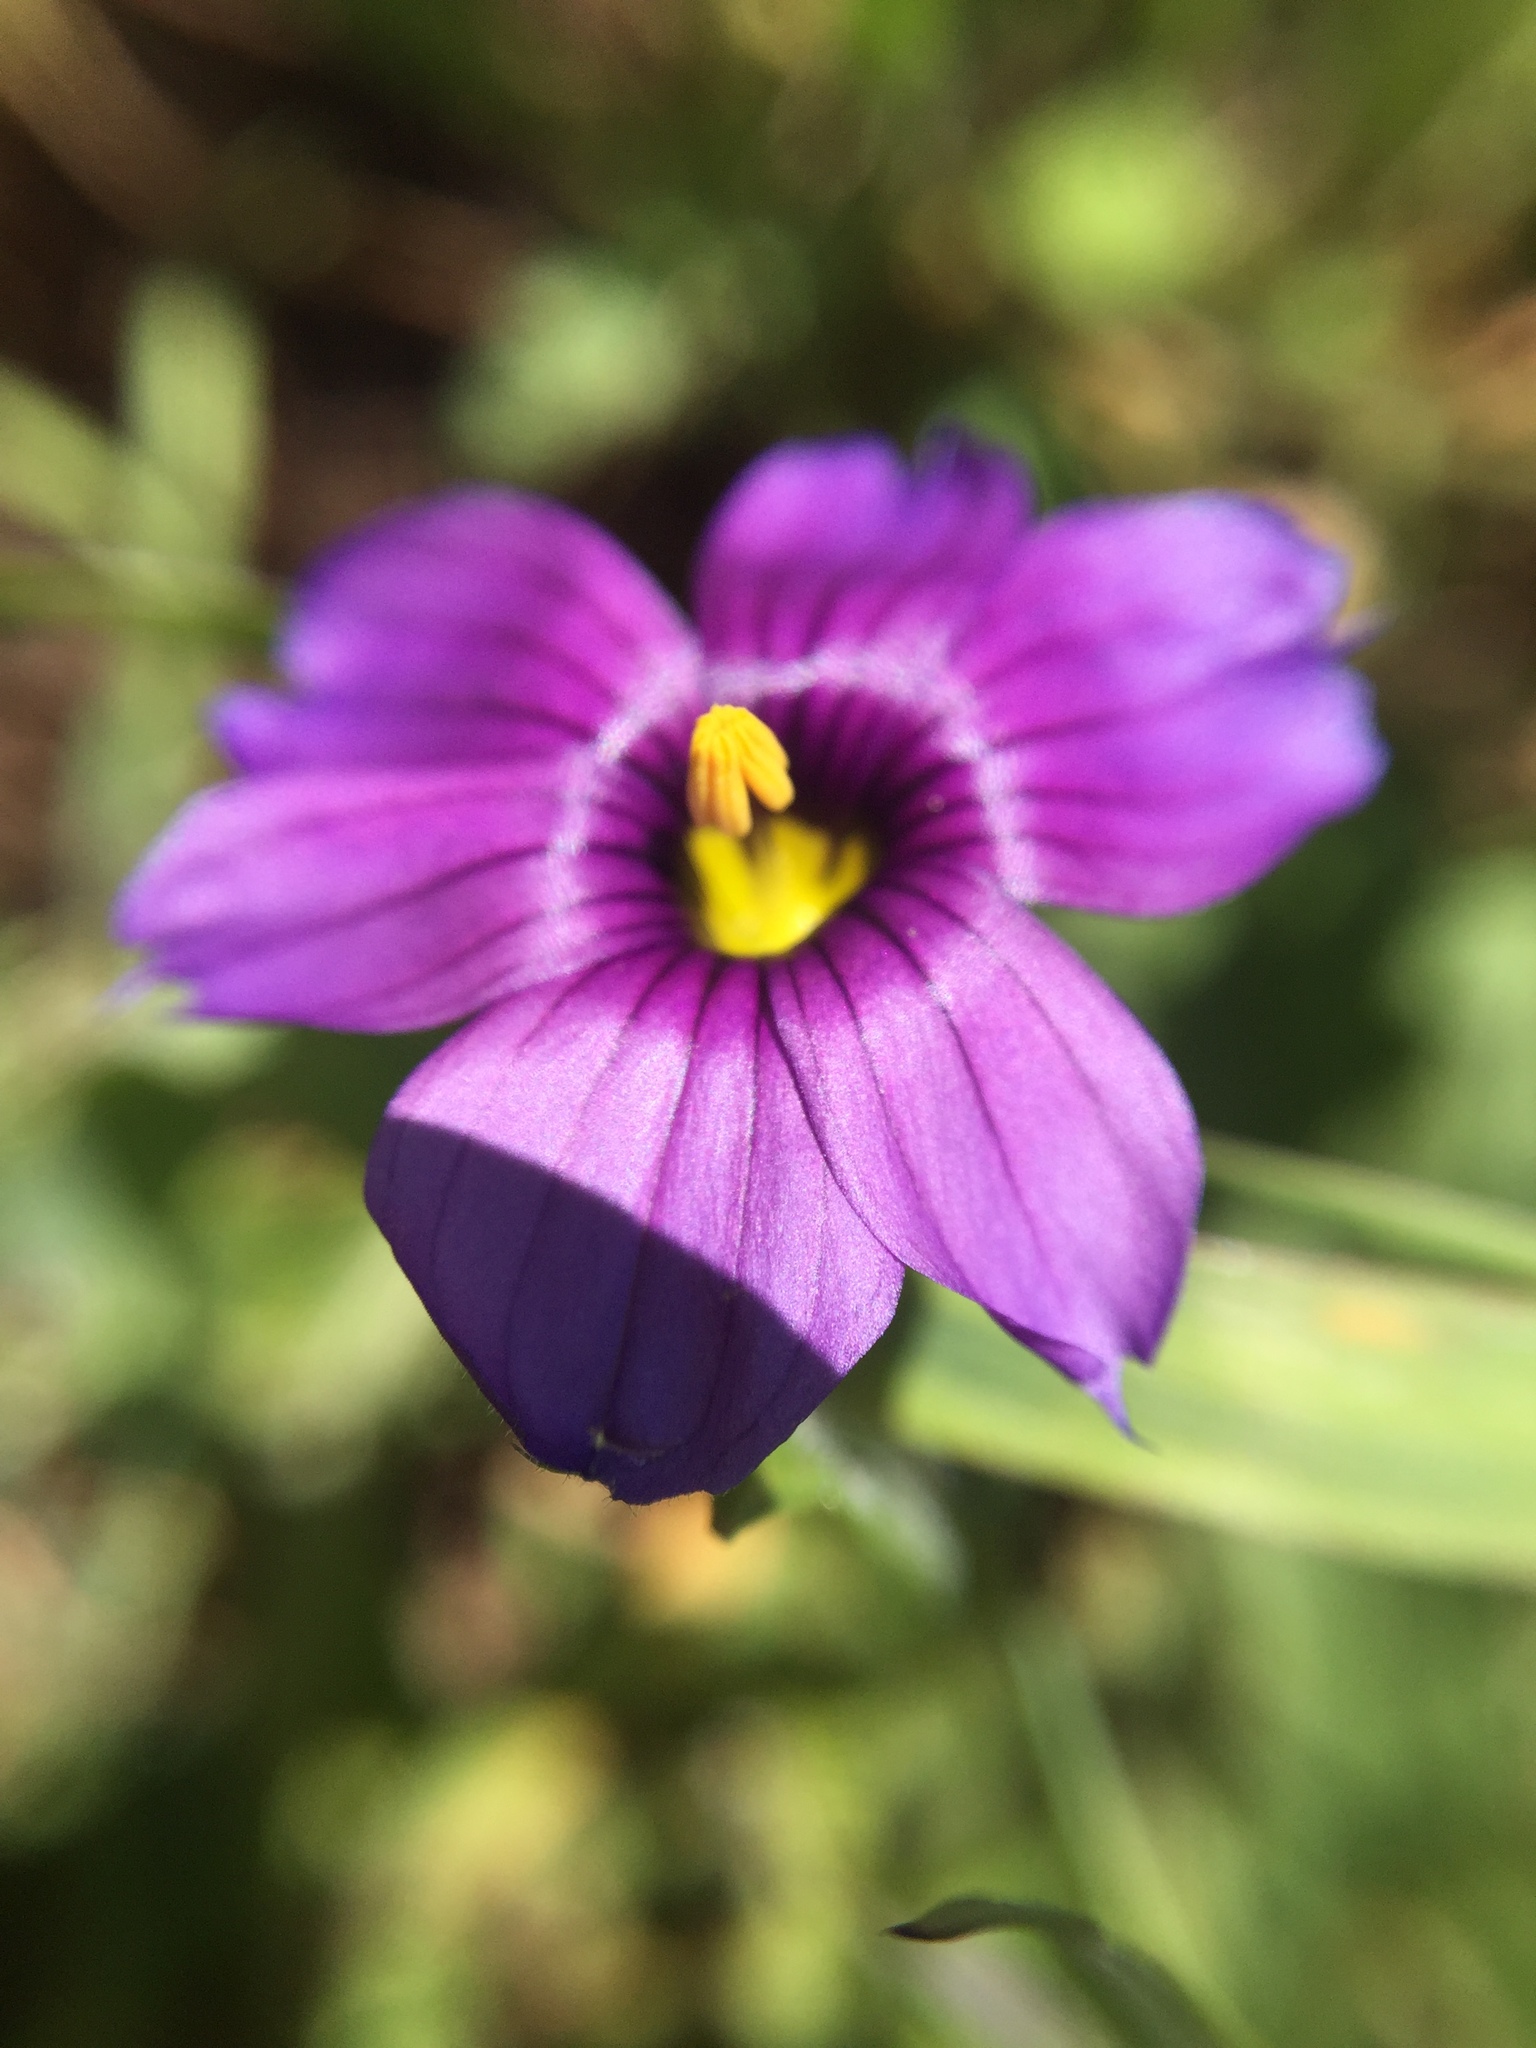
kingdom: Plantae
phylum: Tracheophyta
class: Liliopsida
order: Asparagales
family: Iridaceae
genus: Sisyrinchium
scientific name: Sisyrinchium bellum
